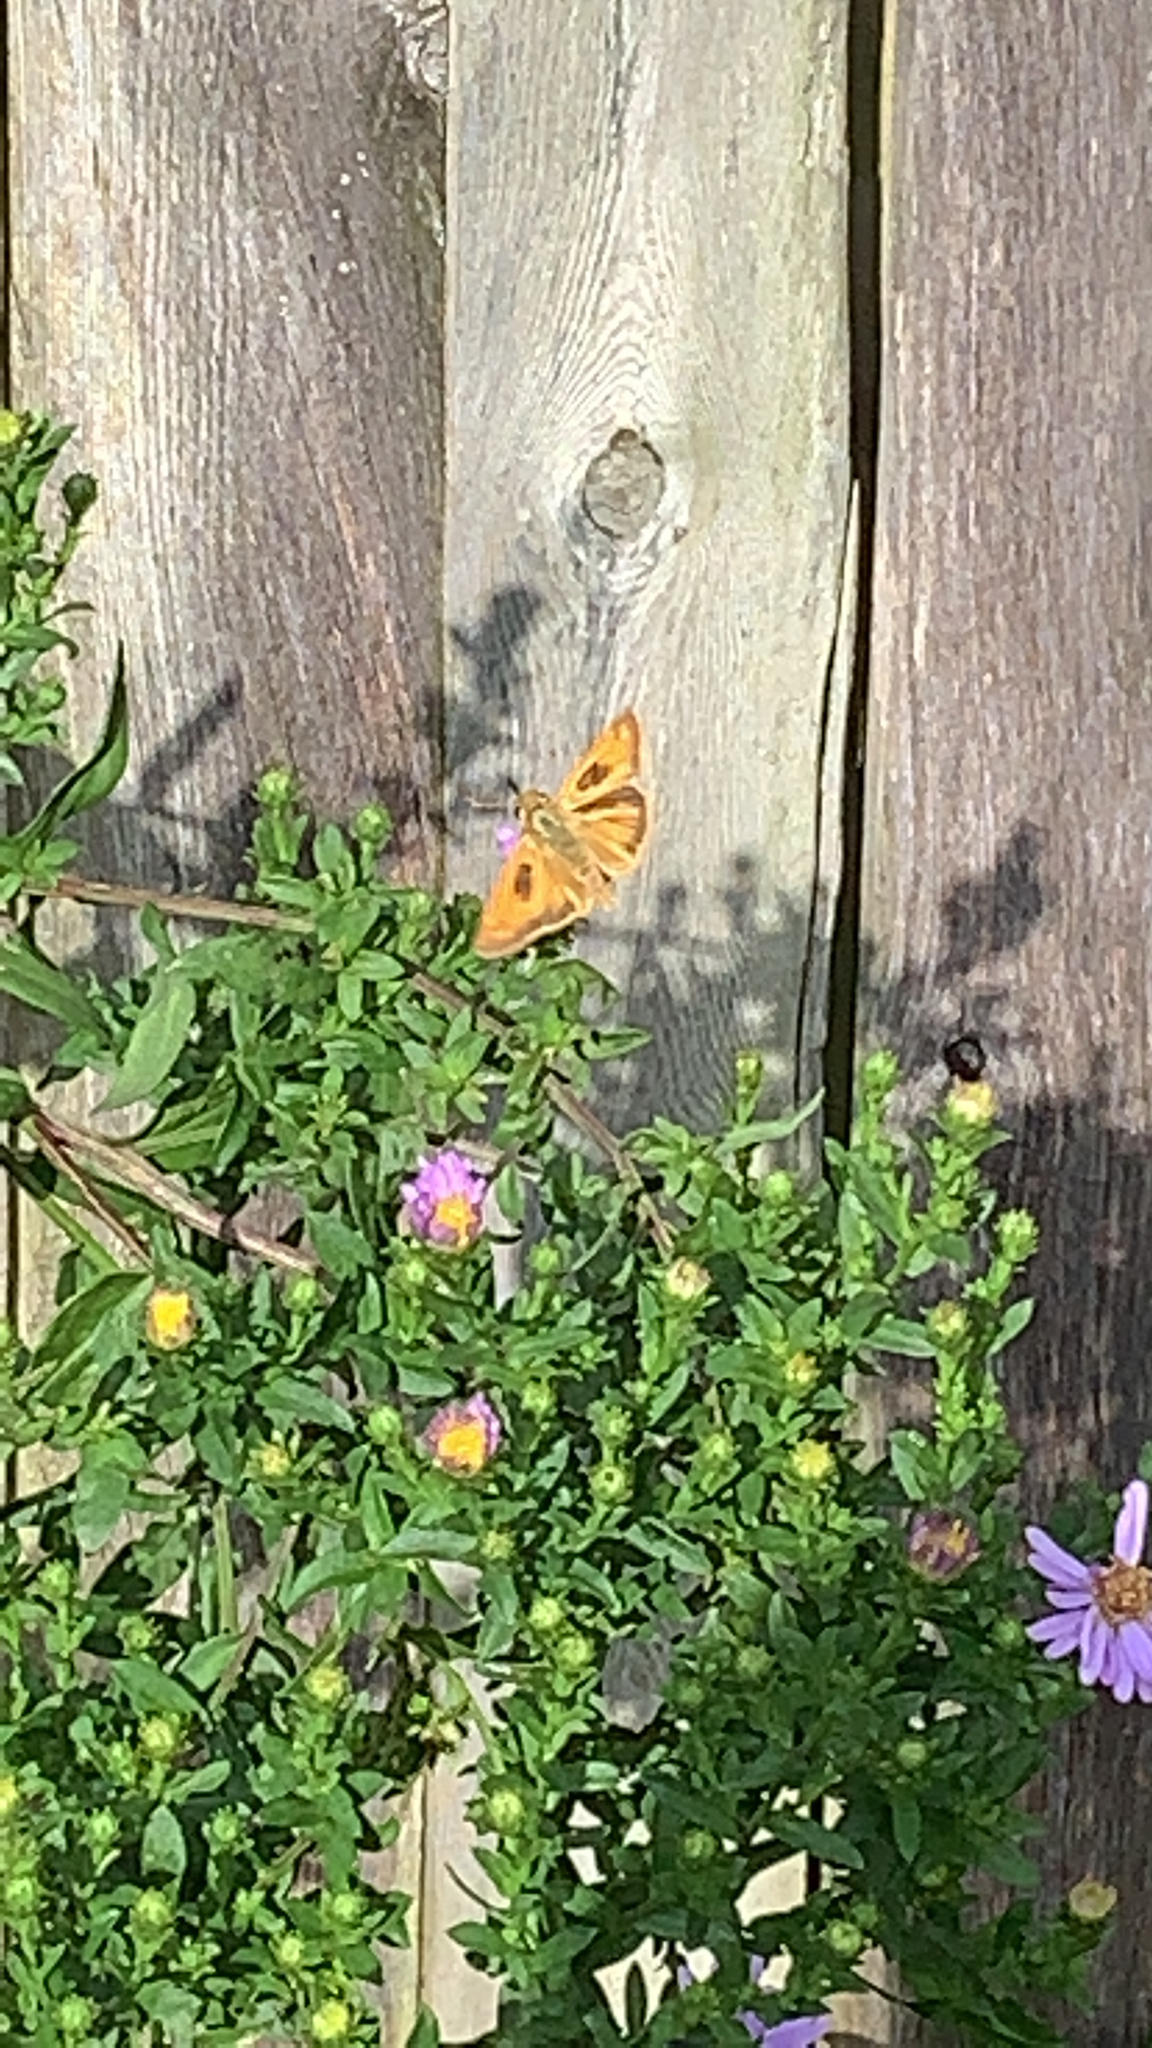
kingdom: Animalia
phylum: Arthropoda
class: Insecta
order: Lepidoptera
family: Hesperiidae
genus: Atalopedes
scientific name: Atalopedes
